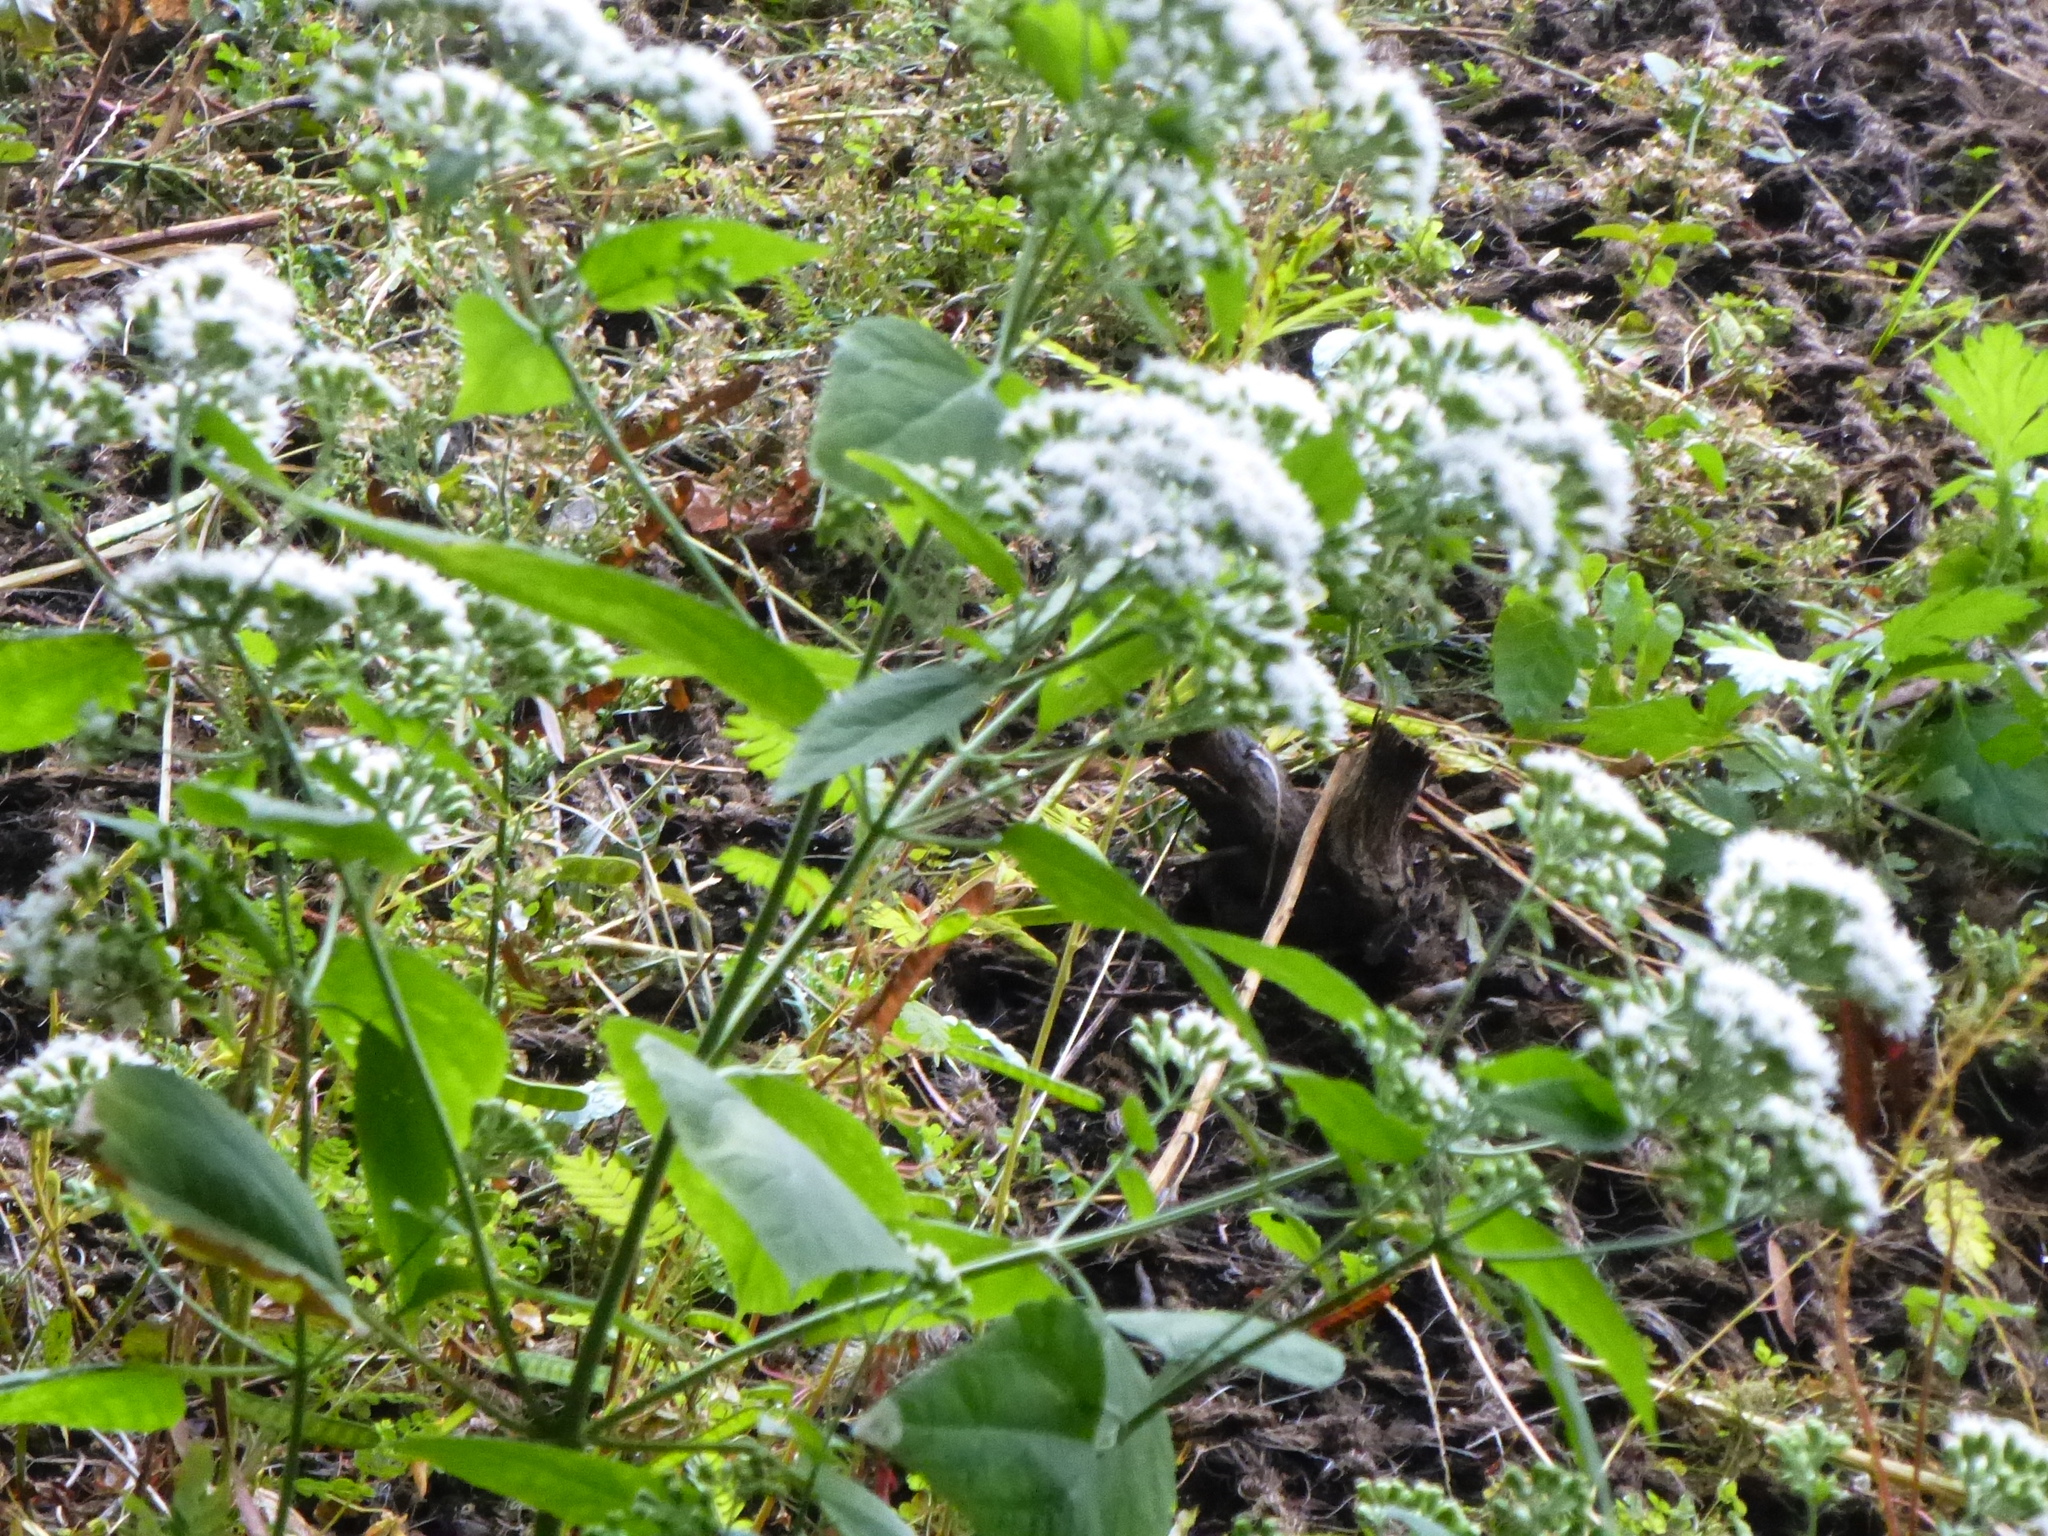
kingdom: Plantae
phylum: Tracheophyta
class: Magnoliopsida
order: Asterales
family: Asteraceae
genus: Ageratina
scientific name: Ageratina altissima
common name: White snakeroot
